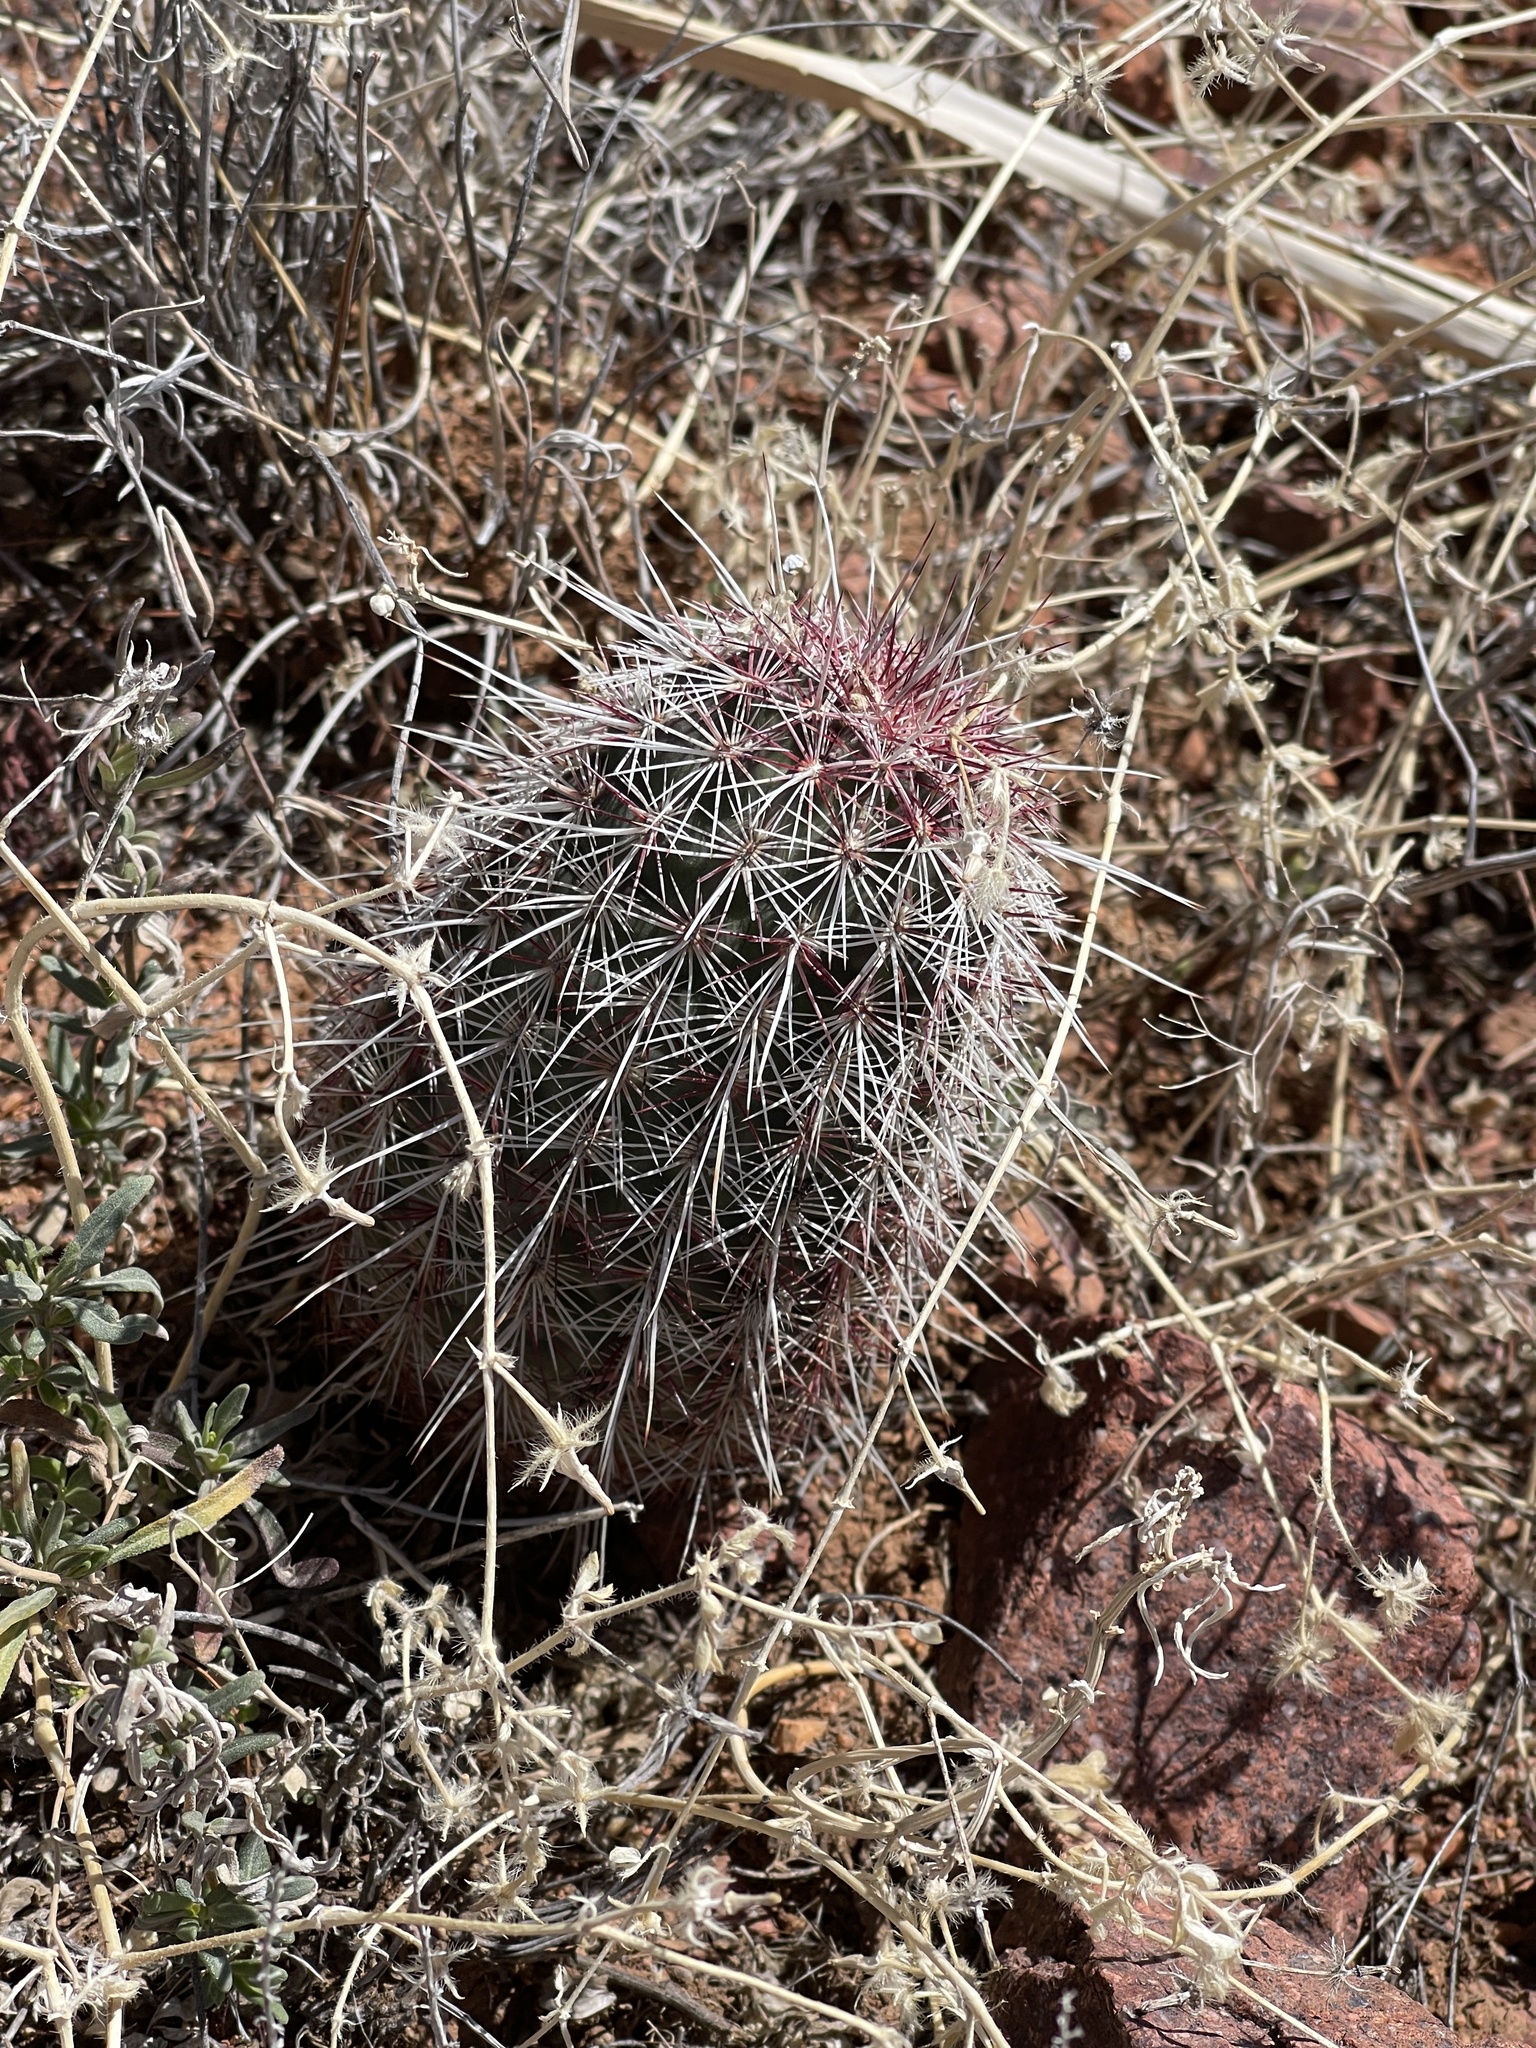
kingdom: Plantae
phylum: Tracheophyta
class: Magnoliopsida
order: Caryophyllales
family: Cactaceae
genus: Echinocereus
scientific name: Echinocereus viridiflorus
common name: Nylon hedgehog cactus
